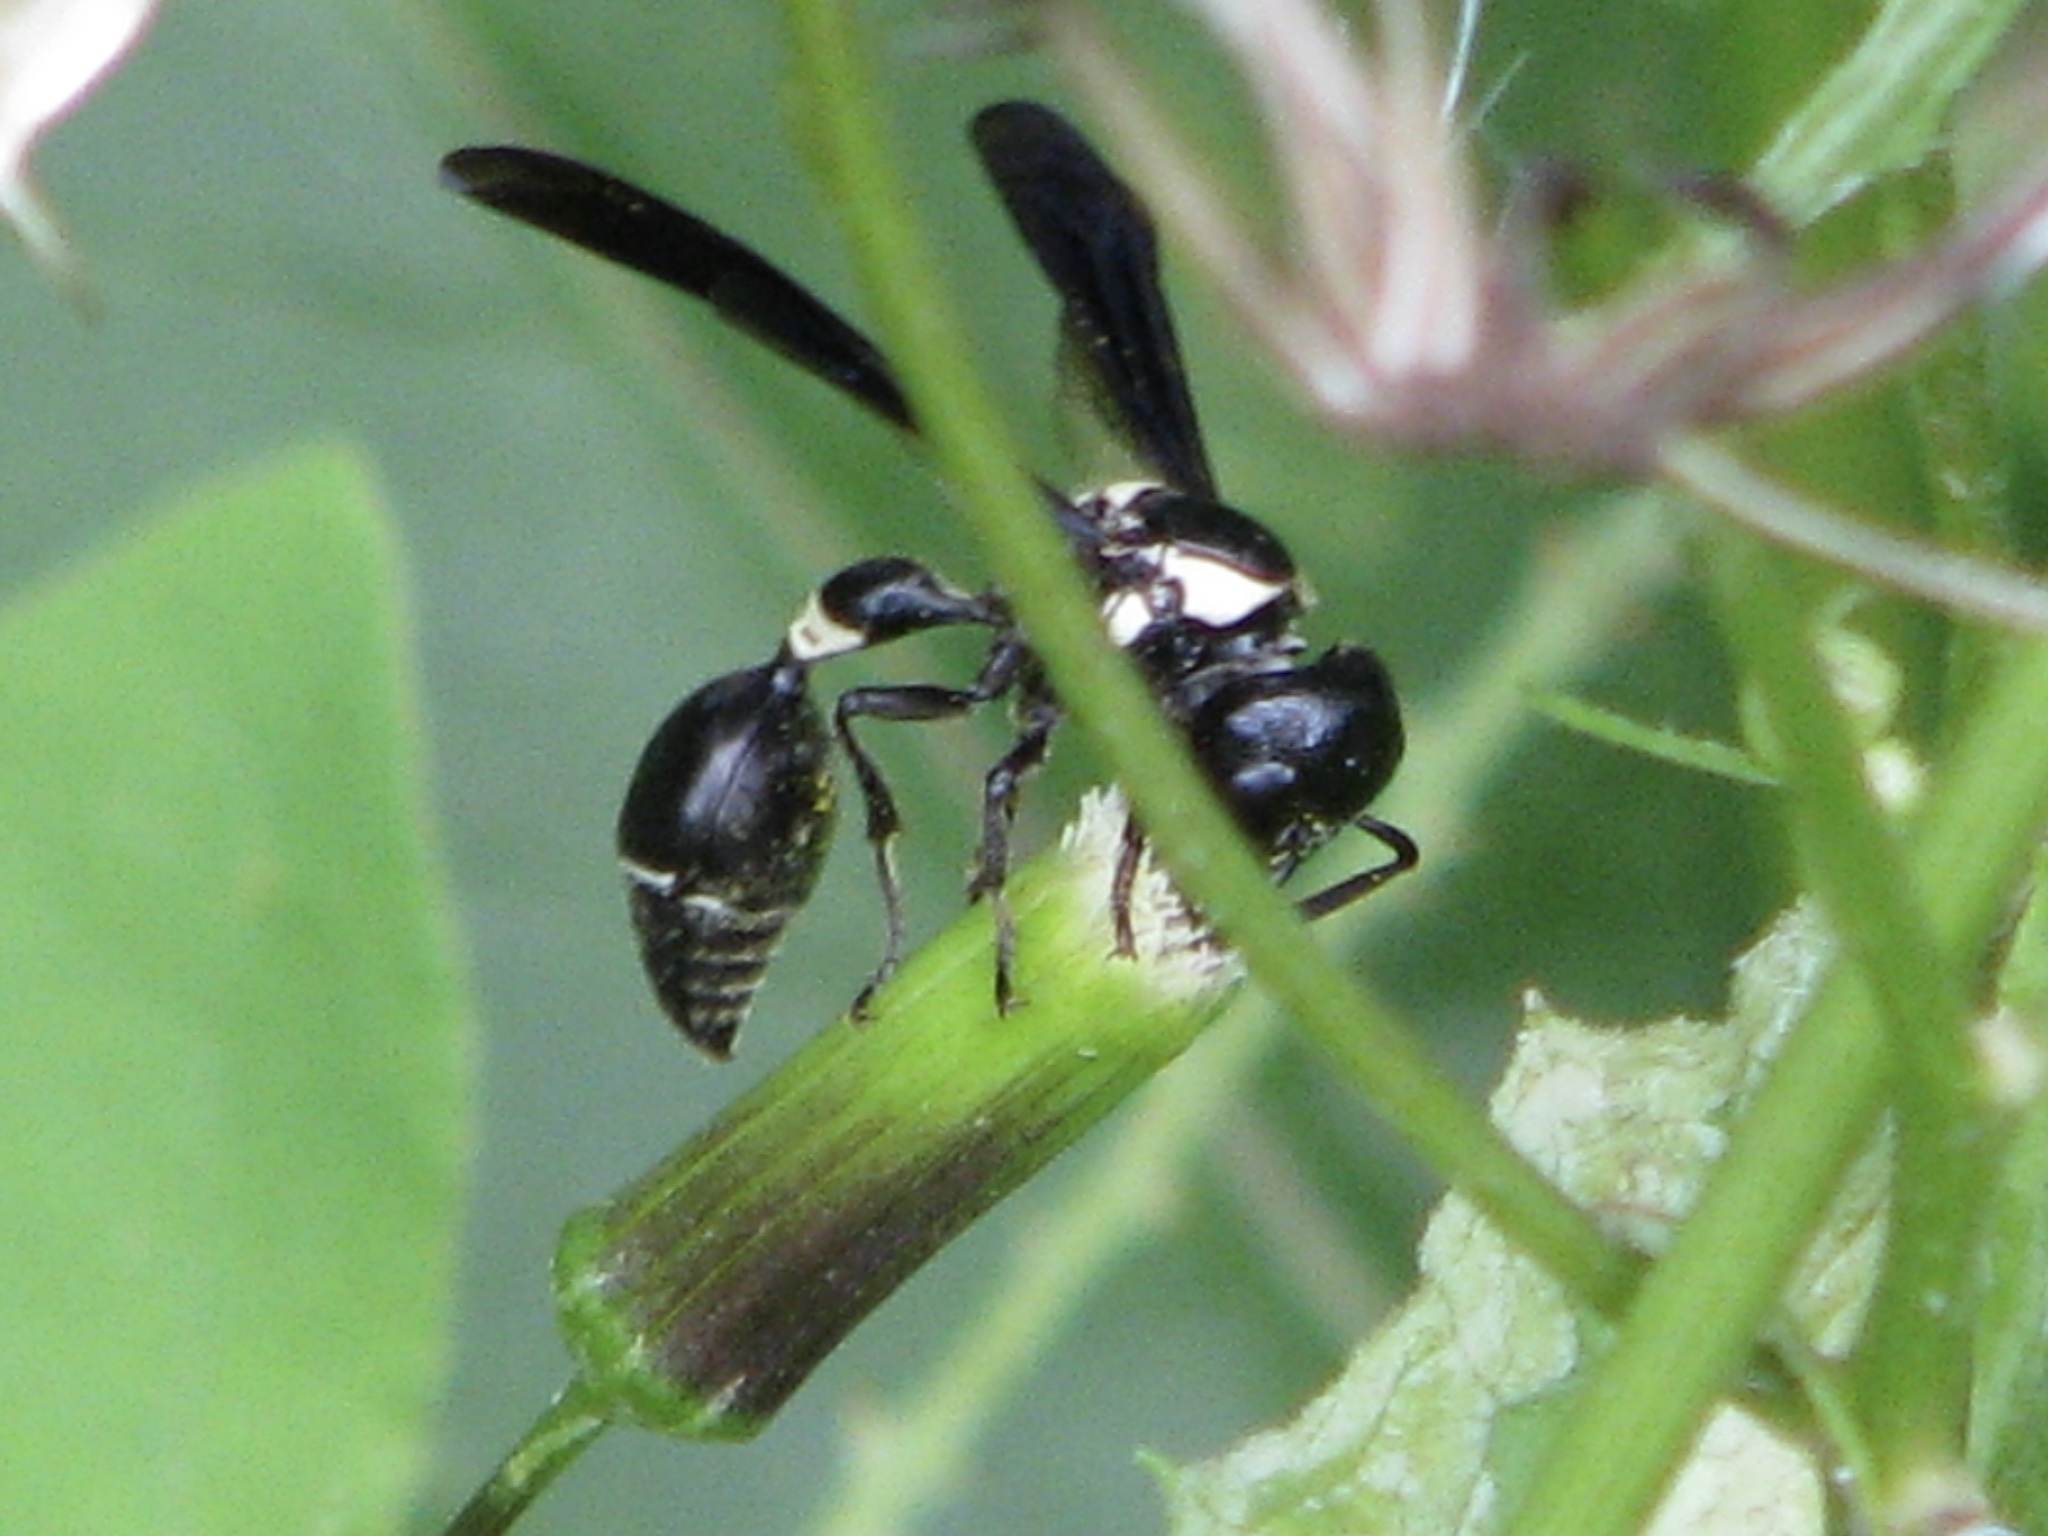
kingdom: Animalia
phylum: Arthropoda
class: Insecta
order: Hymenoptera
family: Eumenidae
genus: Zethus
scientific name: Zethus spinipes
